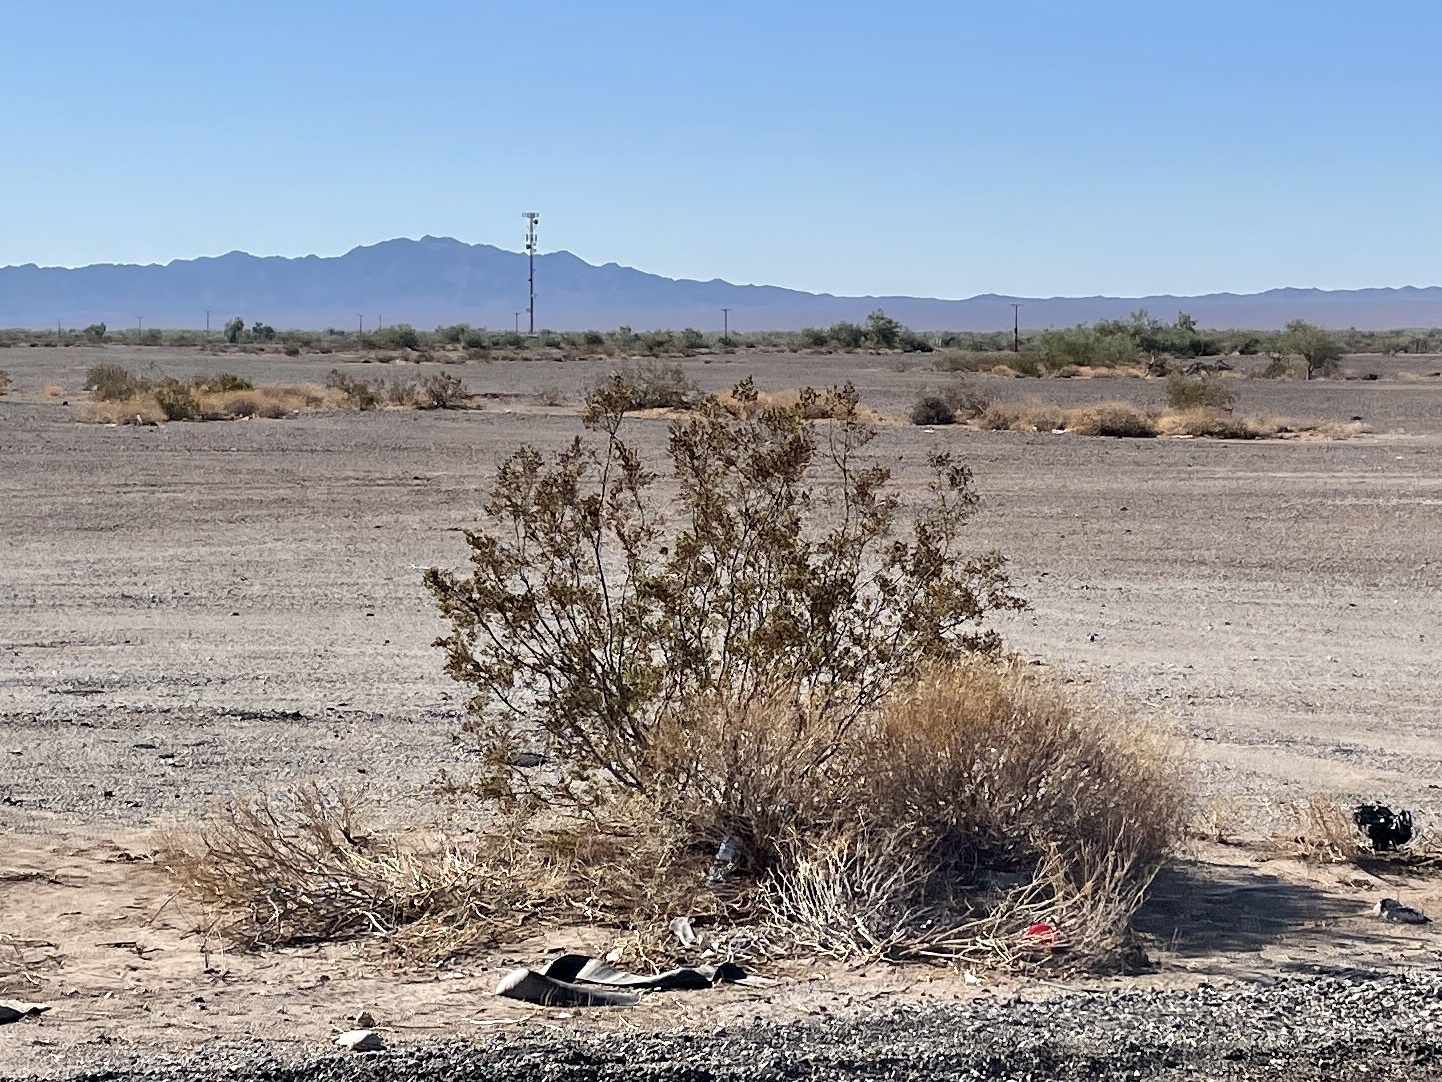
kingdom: Plantae
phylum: Tracheophyta
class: Magnoliopsida
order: Zygophyllales
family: Zygophyllaceae
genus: Larrea
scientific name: Larrea tridentata
